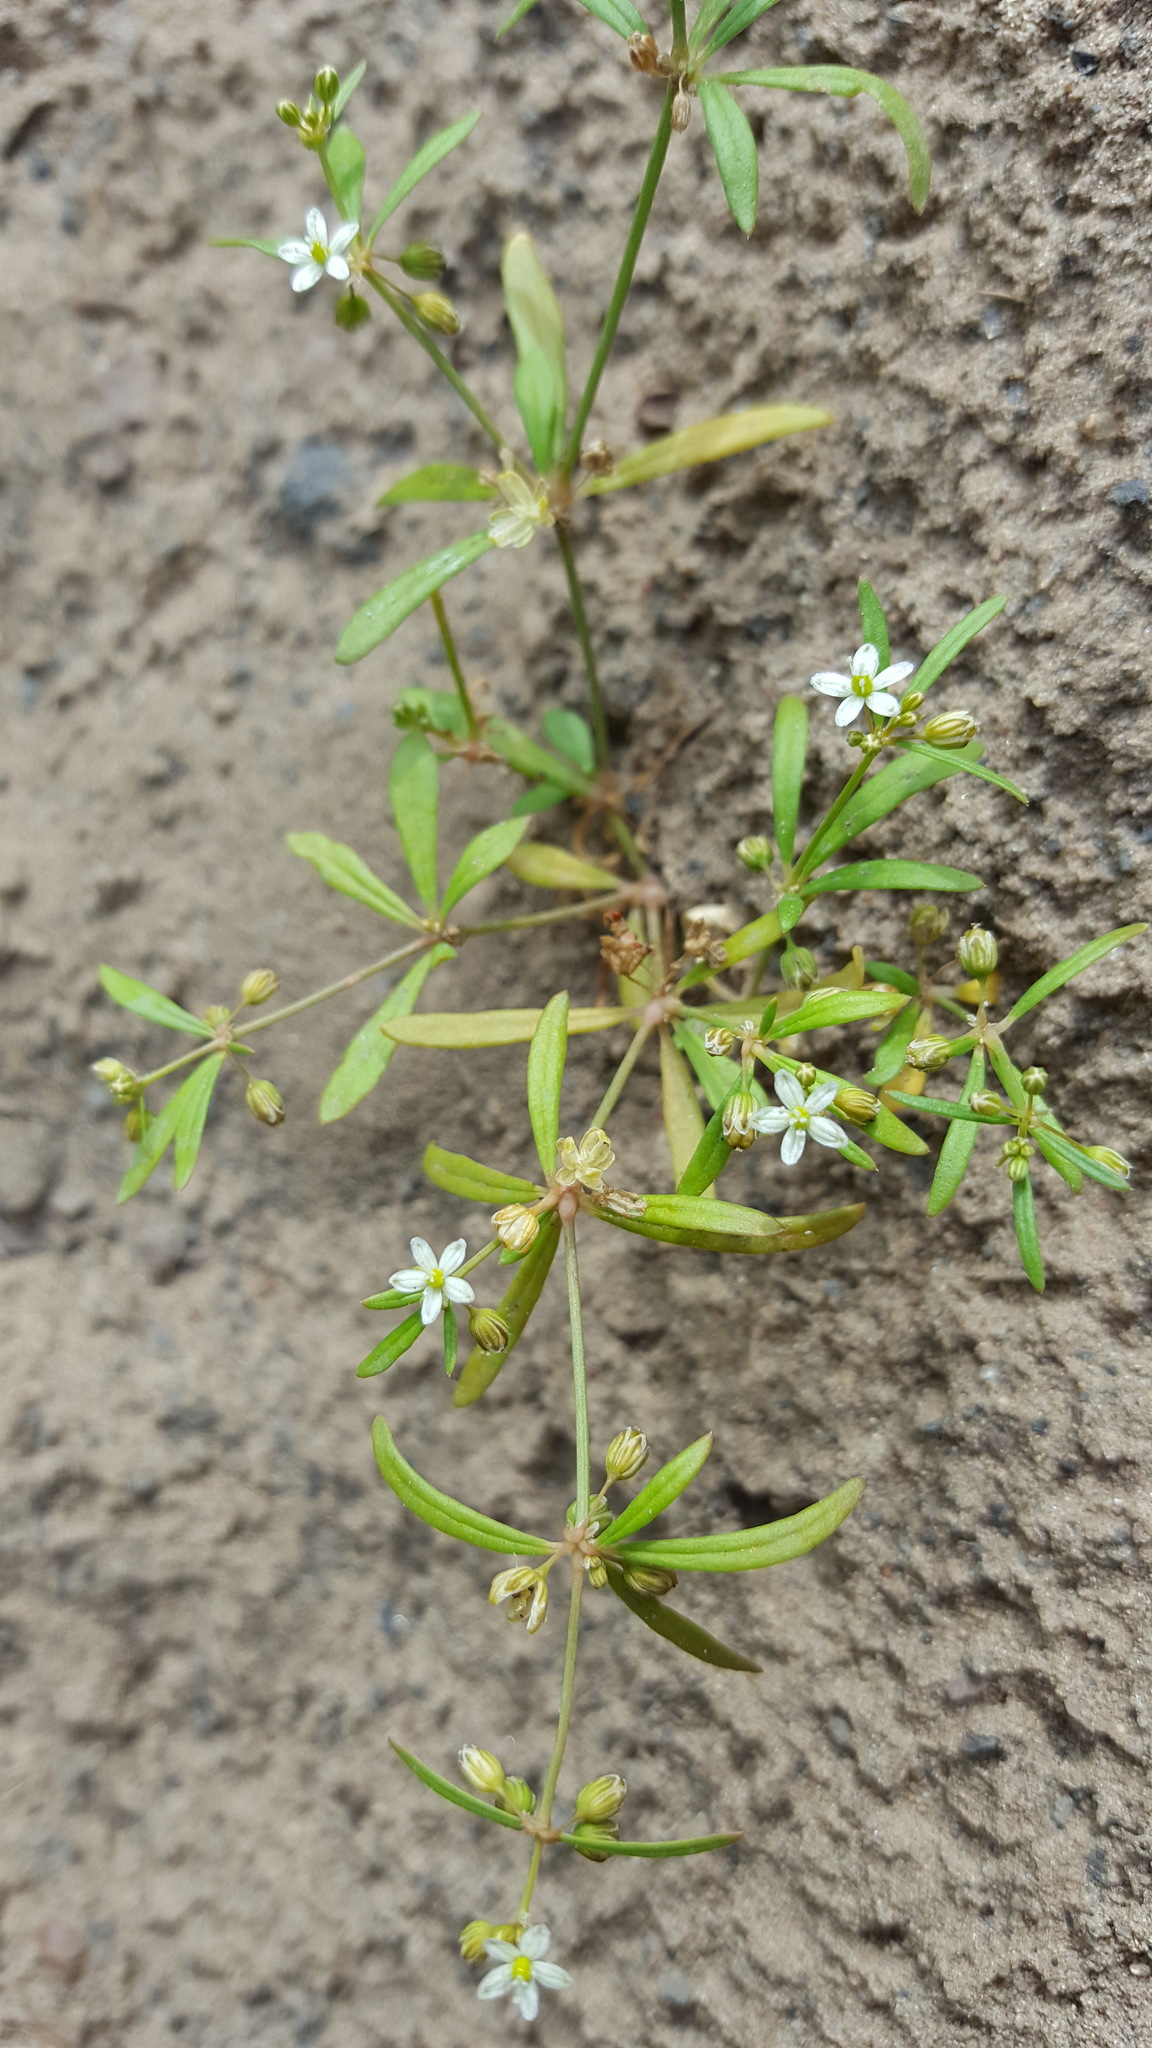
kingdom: Plantae
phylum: Tracheophyta
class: Magnoliopsida
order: Caryophyllales
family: Molluginaceae
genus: Mollugo
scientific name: Mollugo verticillata
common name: Green carpetweed
